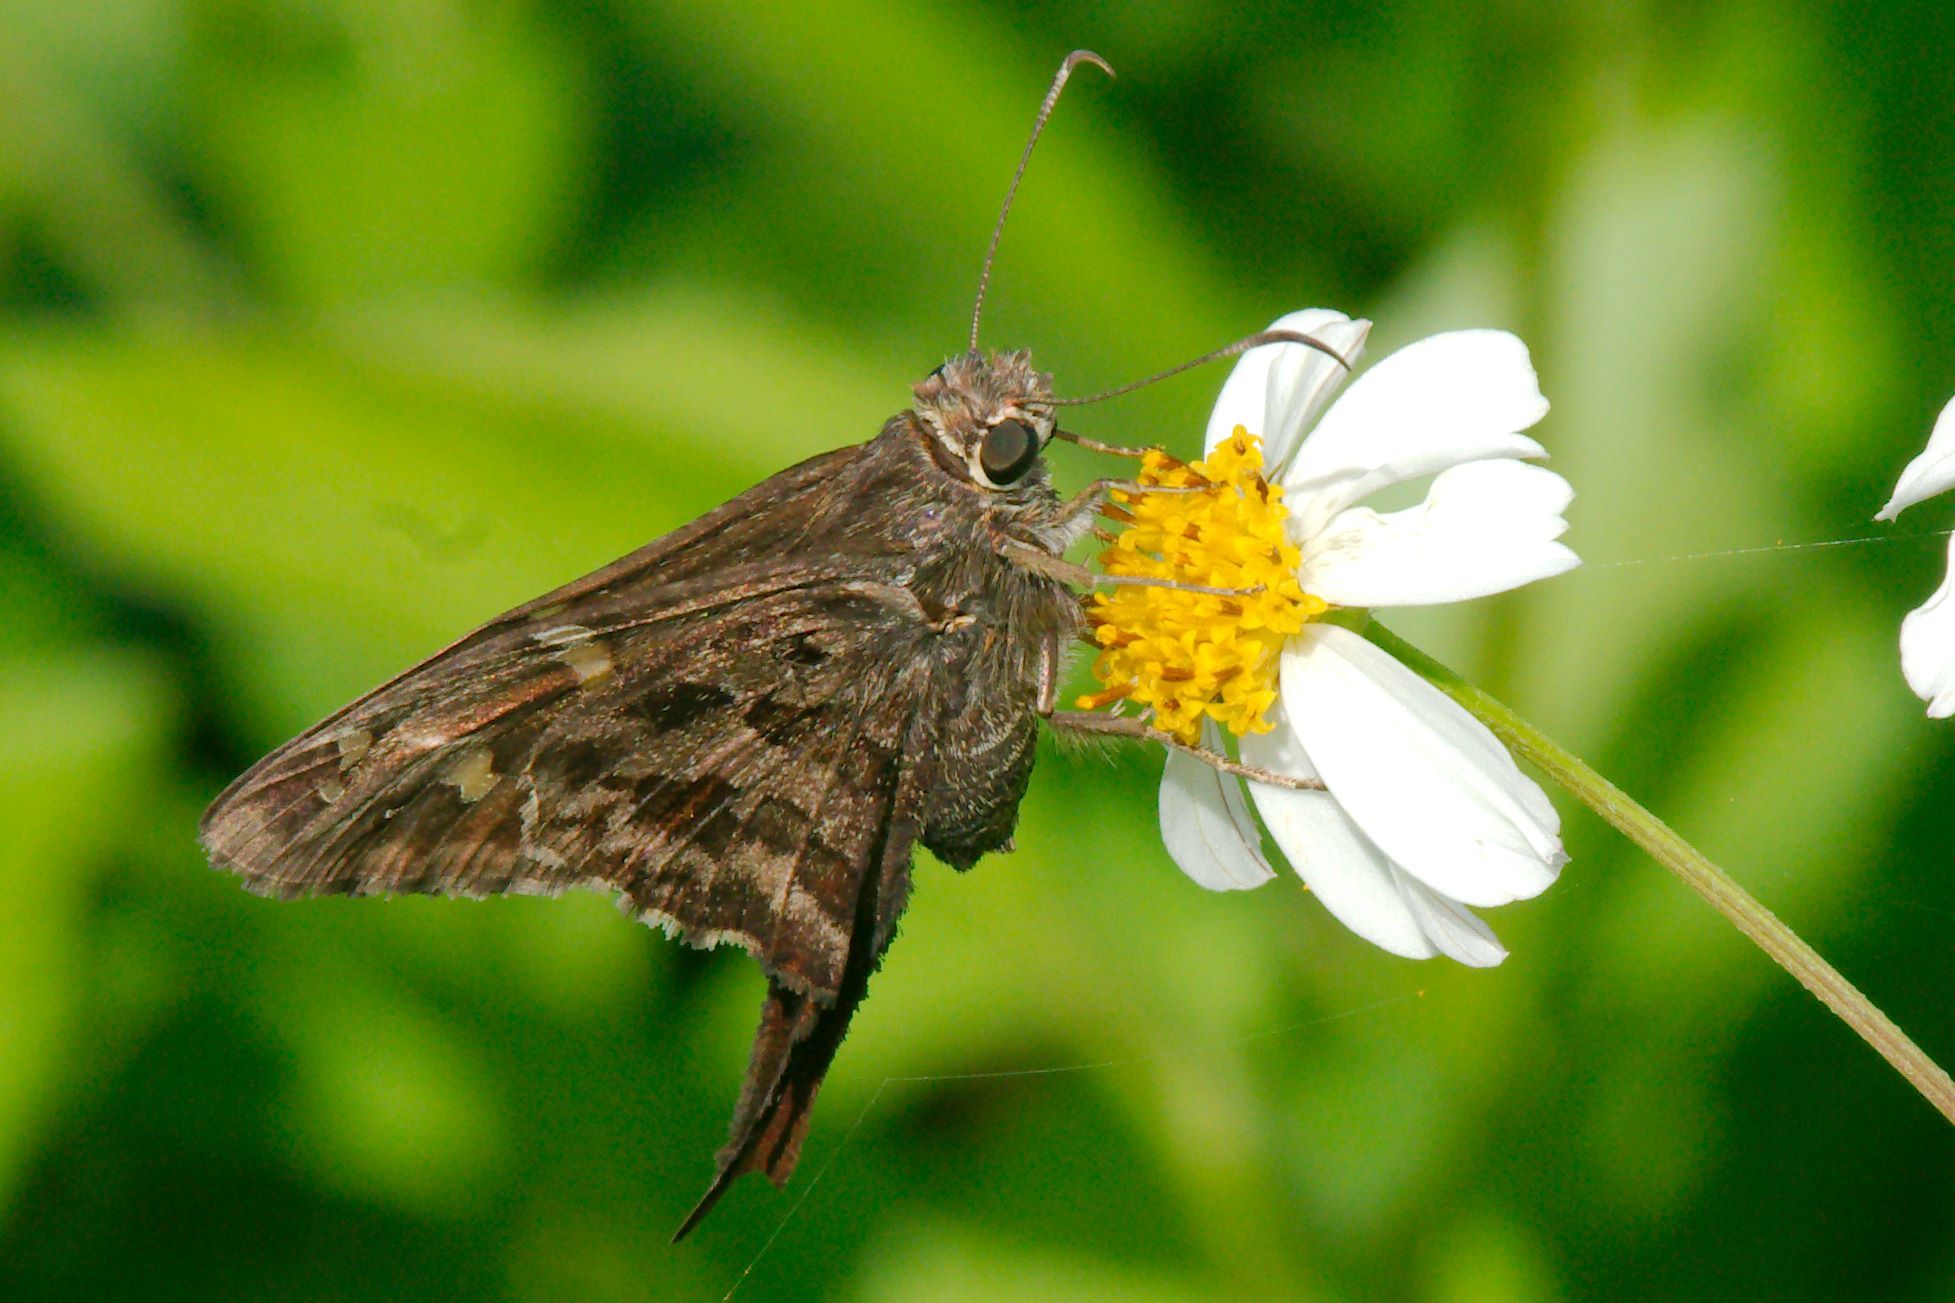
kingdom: Animalia
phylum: Arthropoda
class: Insecta
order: Lepidoptera
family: Hesperiidae
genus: Thorybes
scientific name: Thorybes
